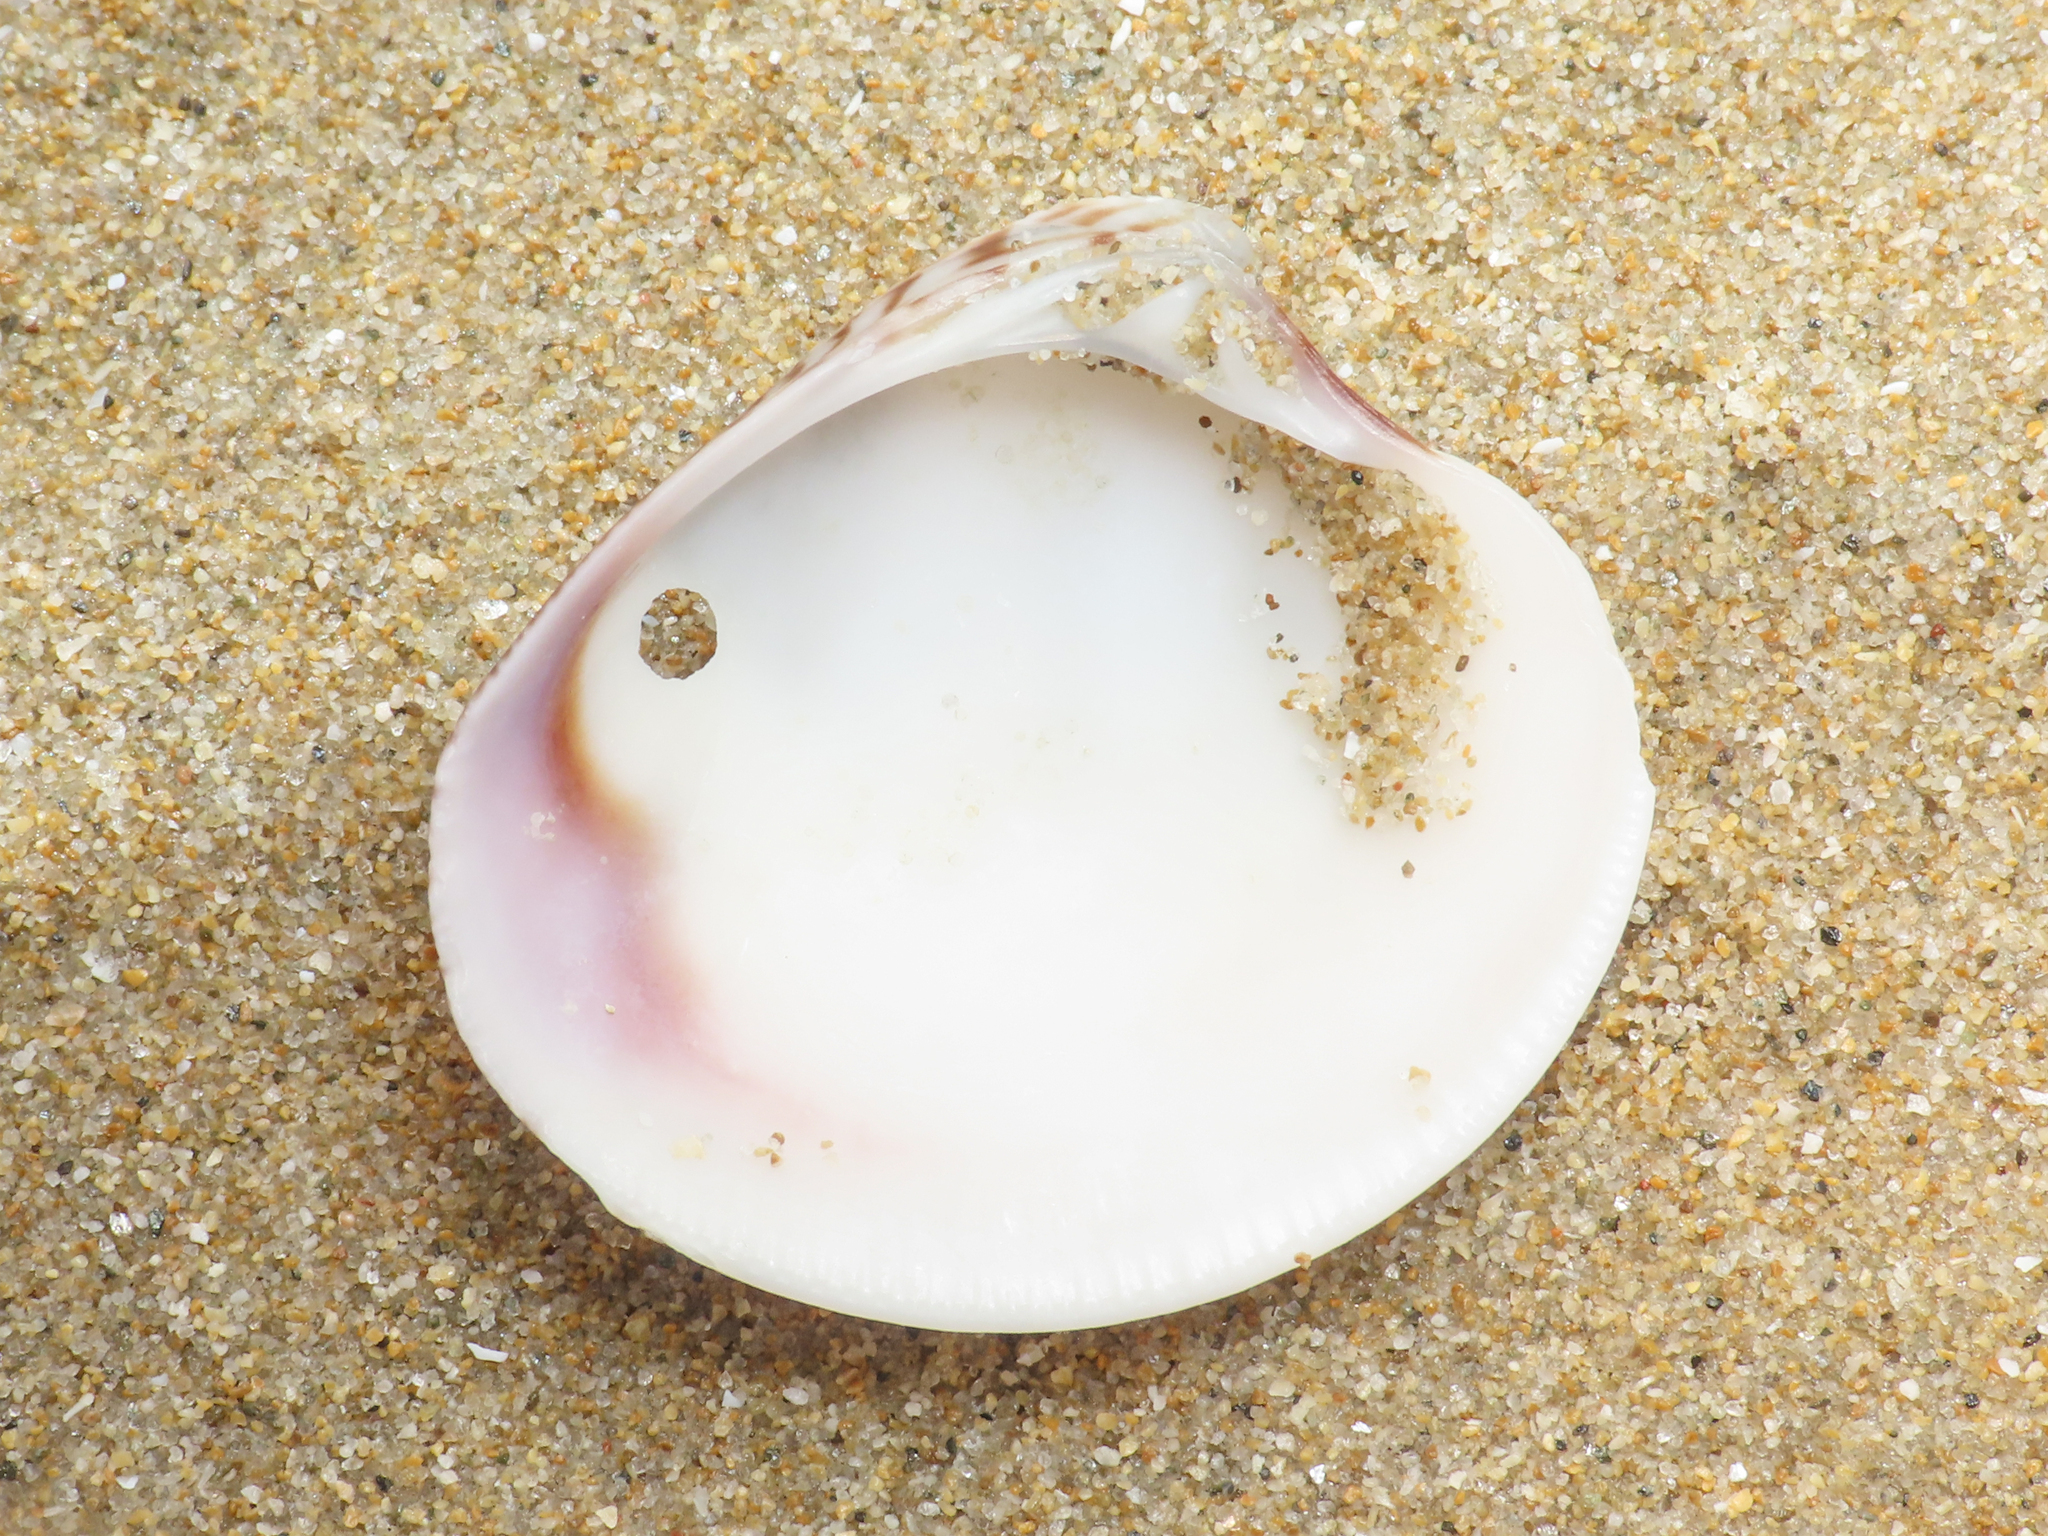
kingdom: Animalia
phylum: Mollusca
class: Bivalvia
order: Venerida
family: Veneridae
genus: Chamelea
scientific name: Chamelea gallina
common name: Chicken venus
